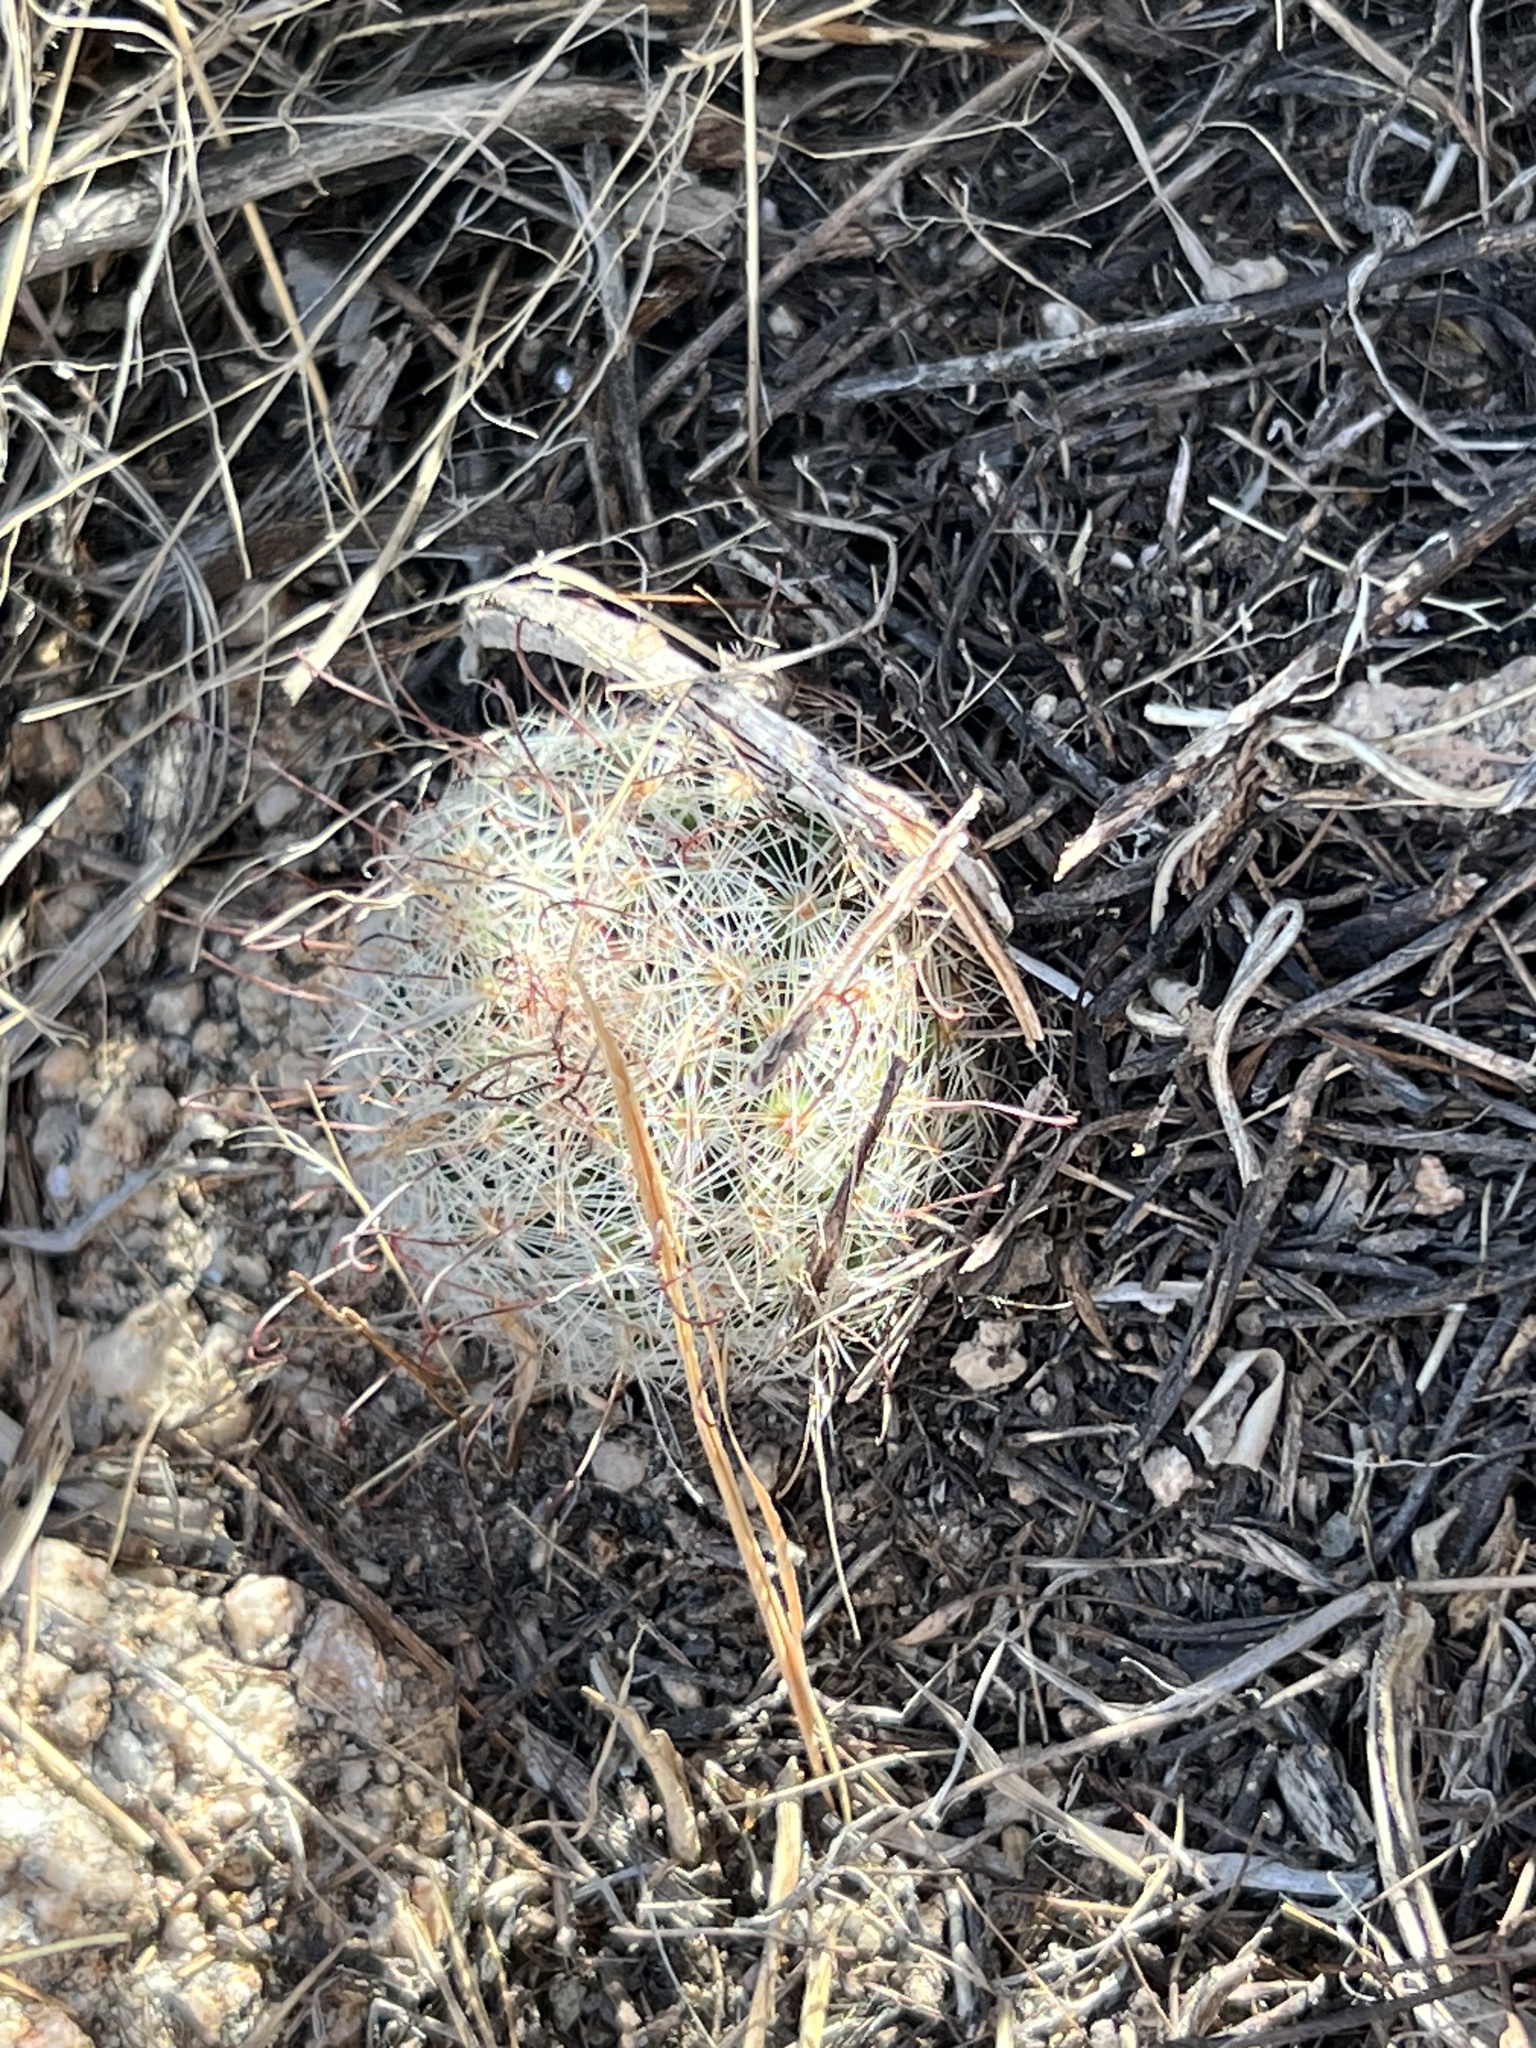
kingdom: Plantae
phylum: Tracheophyta
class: Magnoliopsida
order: Caryophyllales
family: Cactaceae
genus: Cochemiea
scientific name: Cochemiea grahamii
